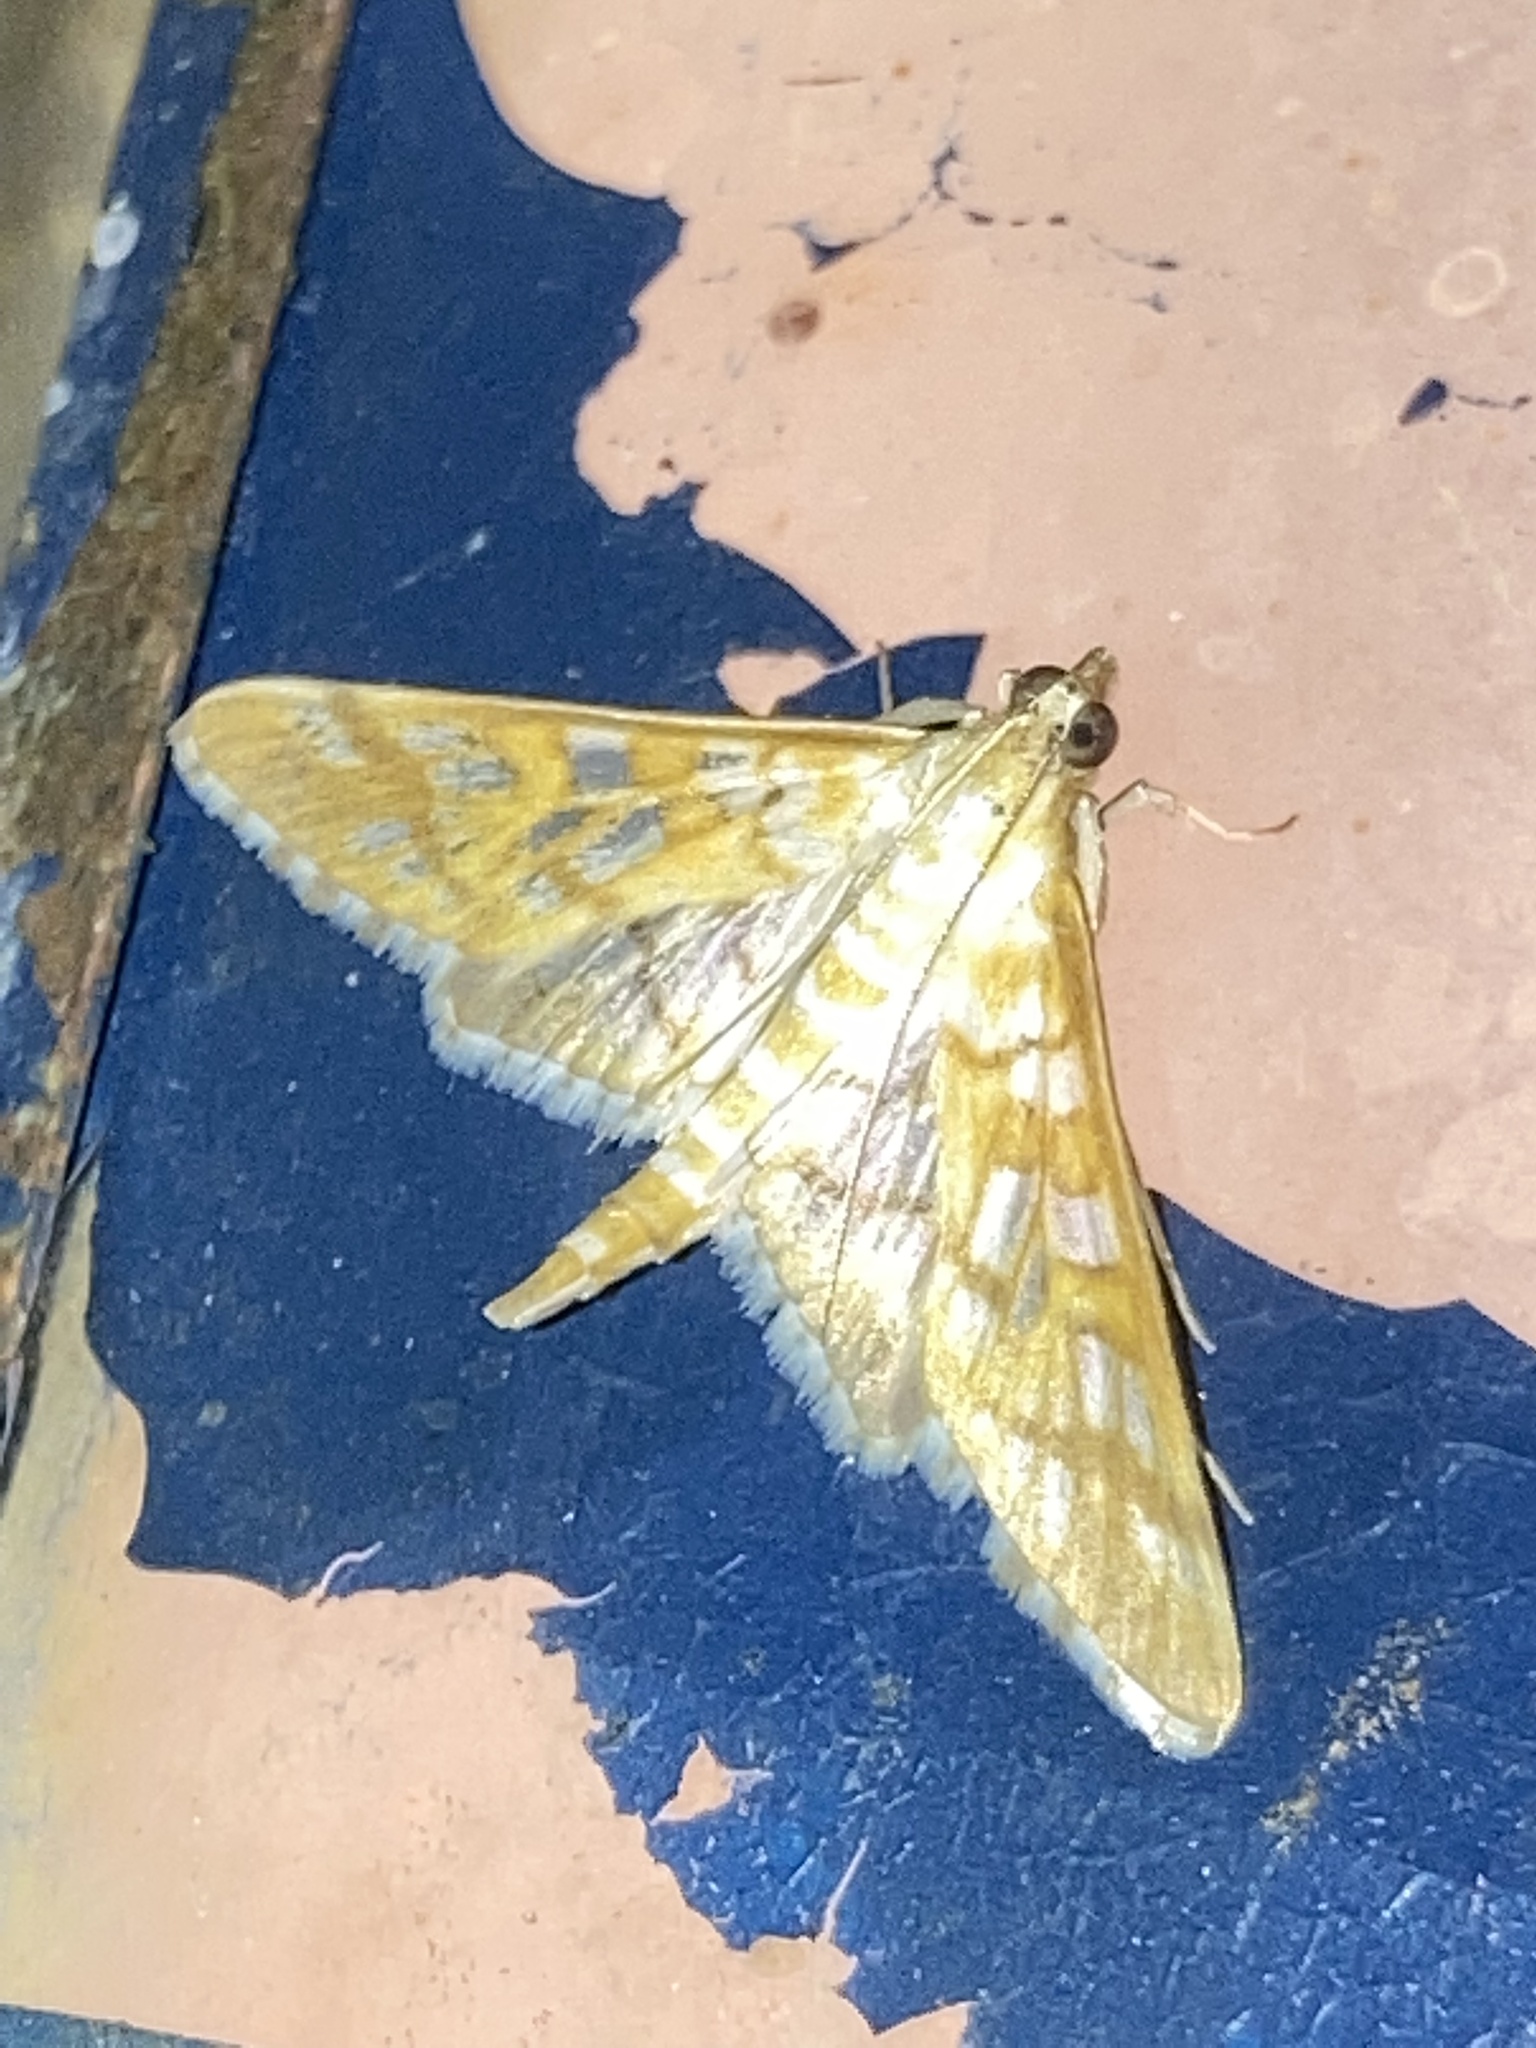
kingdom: Animalia
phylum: Arthropoda
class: Insecta
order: Lepidoptera
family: Crambidae
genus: Epipagis
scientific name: Epipagis fenestralis
